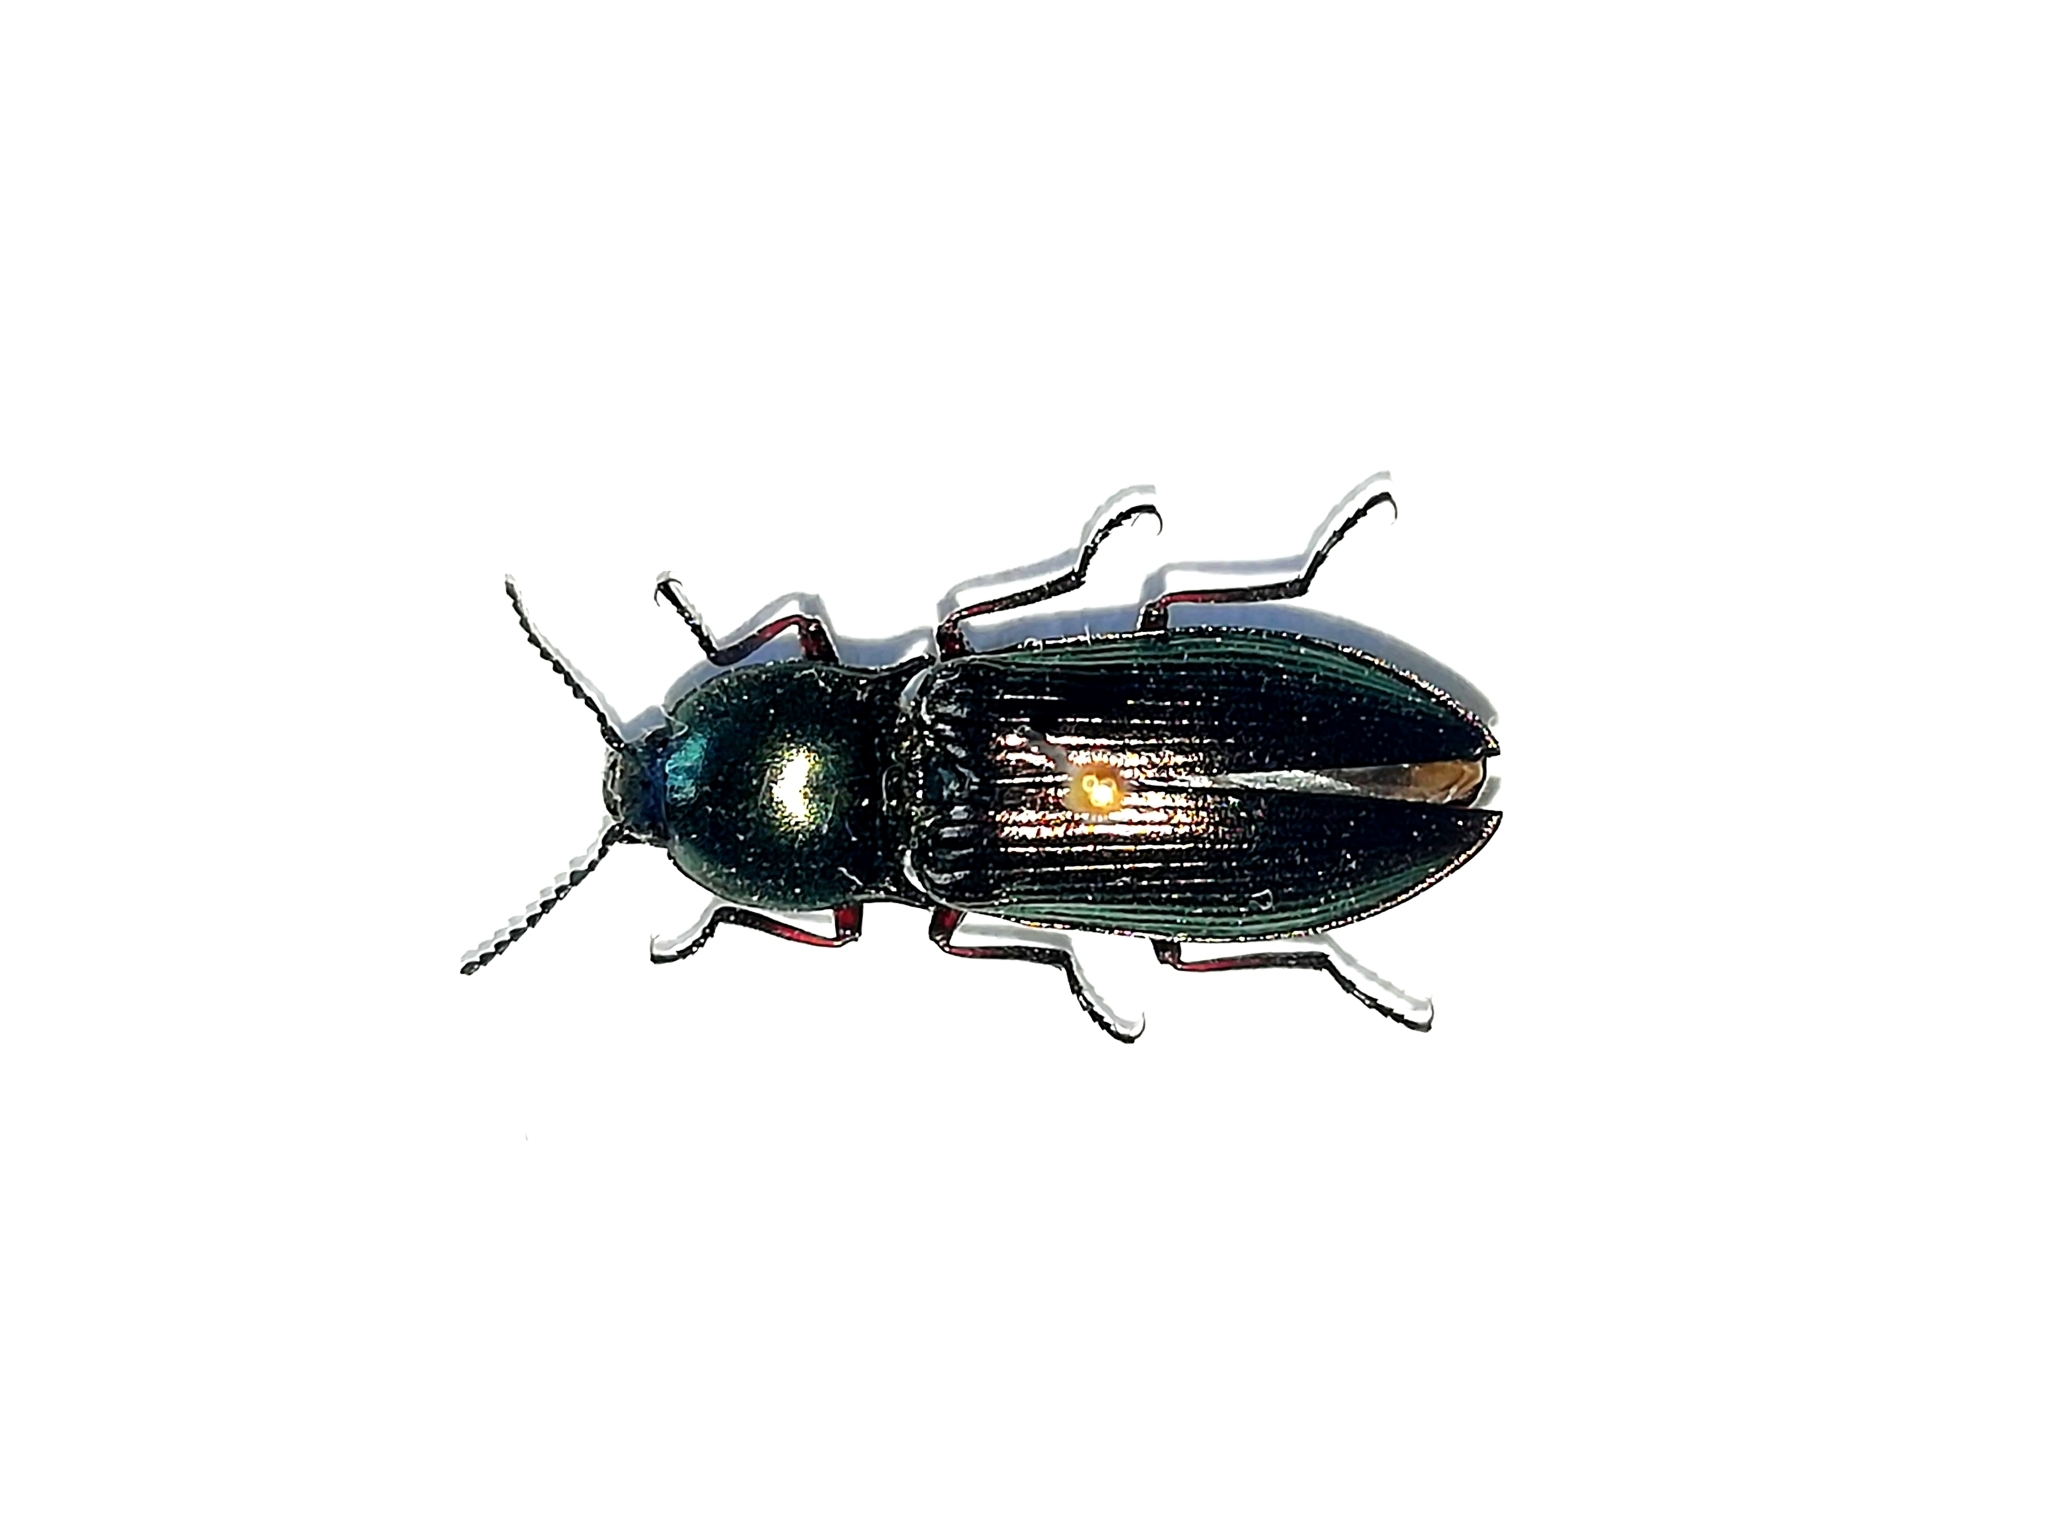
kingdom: Animalia
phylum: Arthropoda
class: Insecta
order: Coleoptera
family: Elateridae
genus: Selatosomus
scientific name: Selatosomus aeneus
